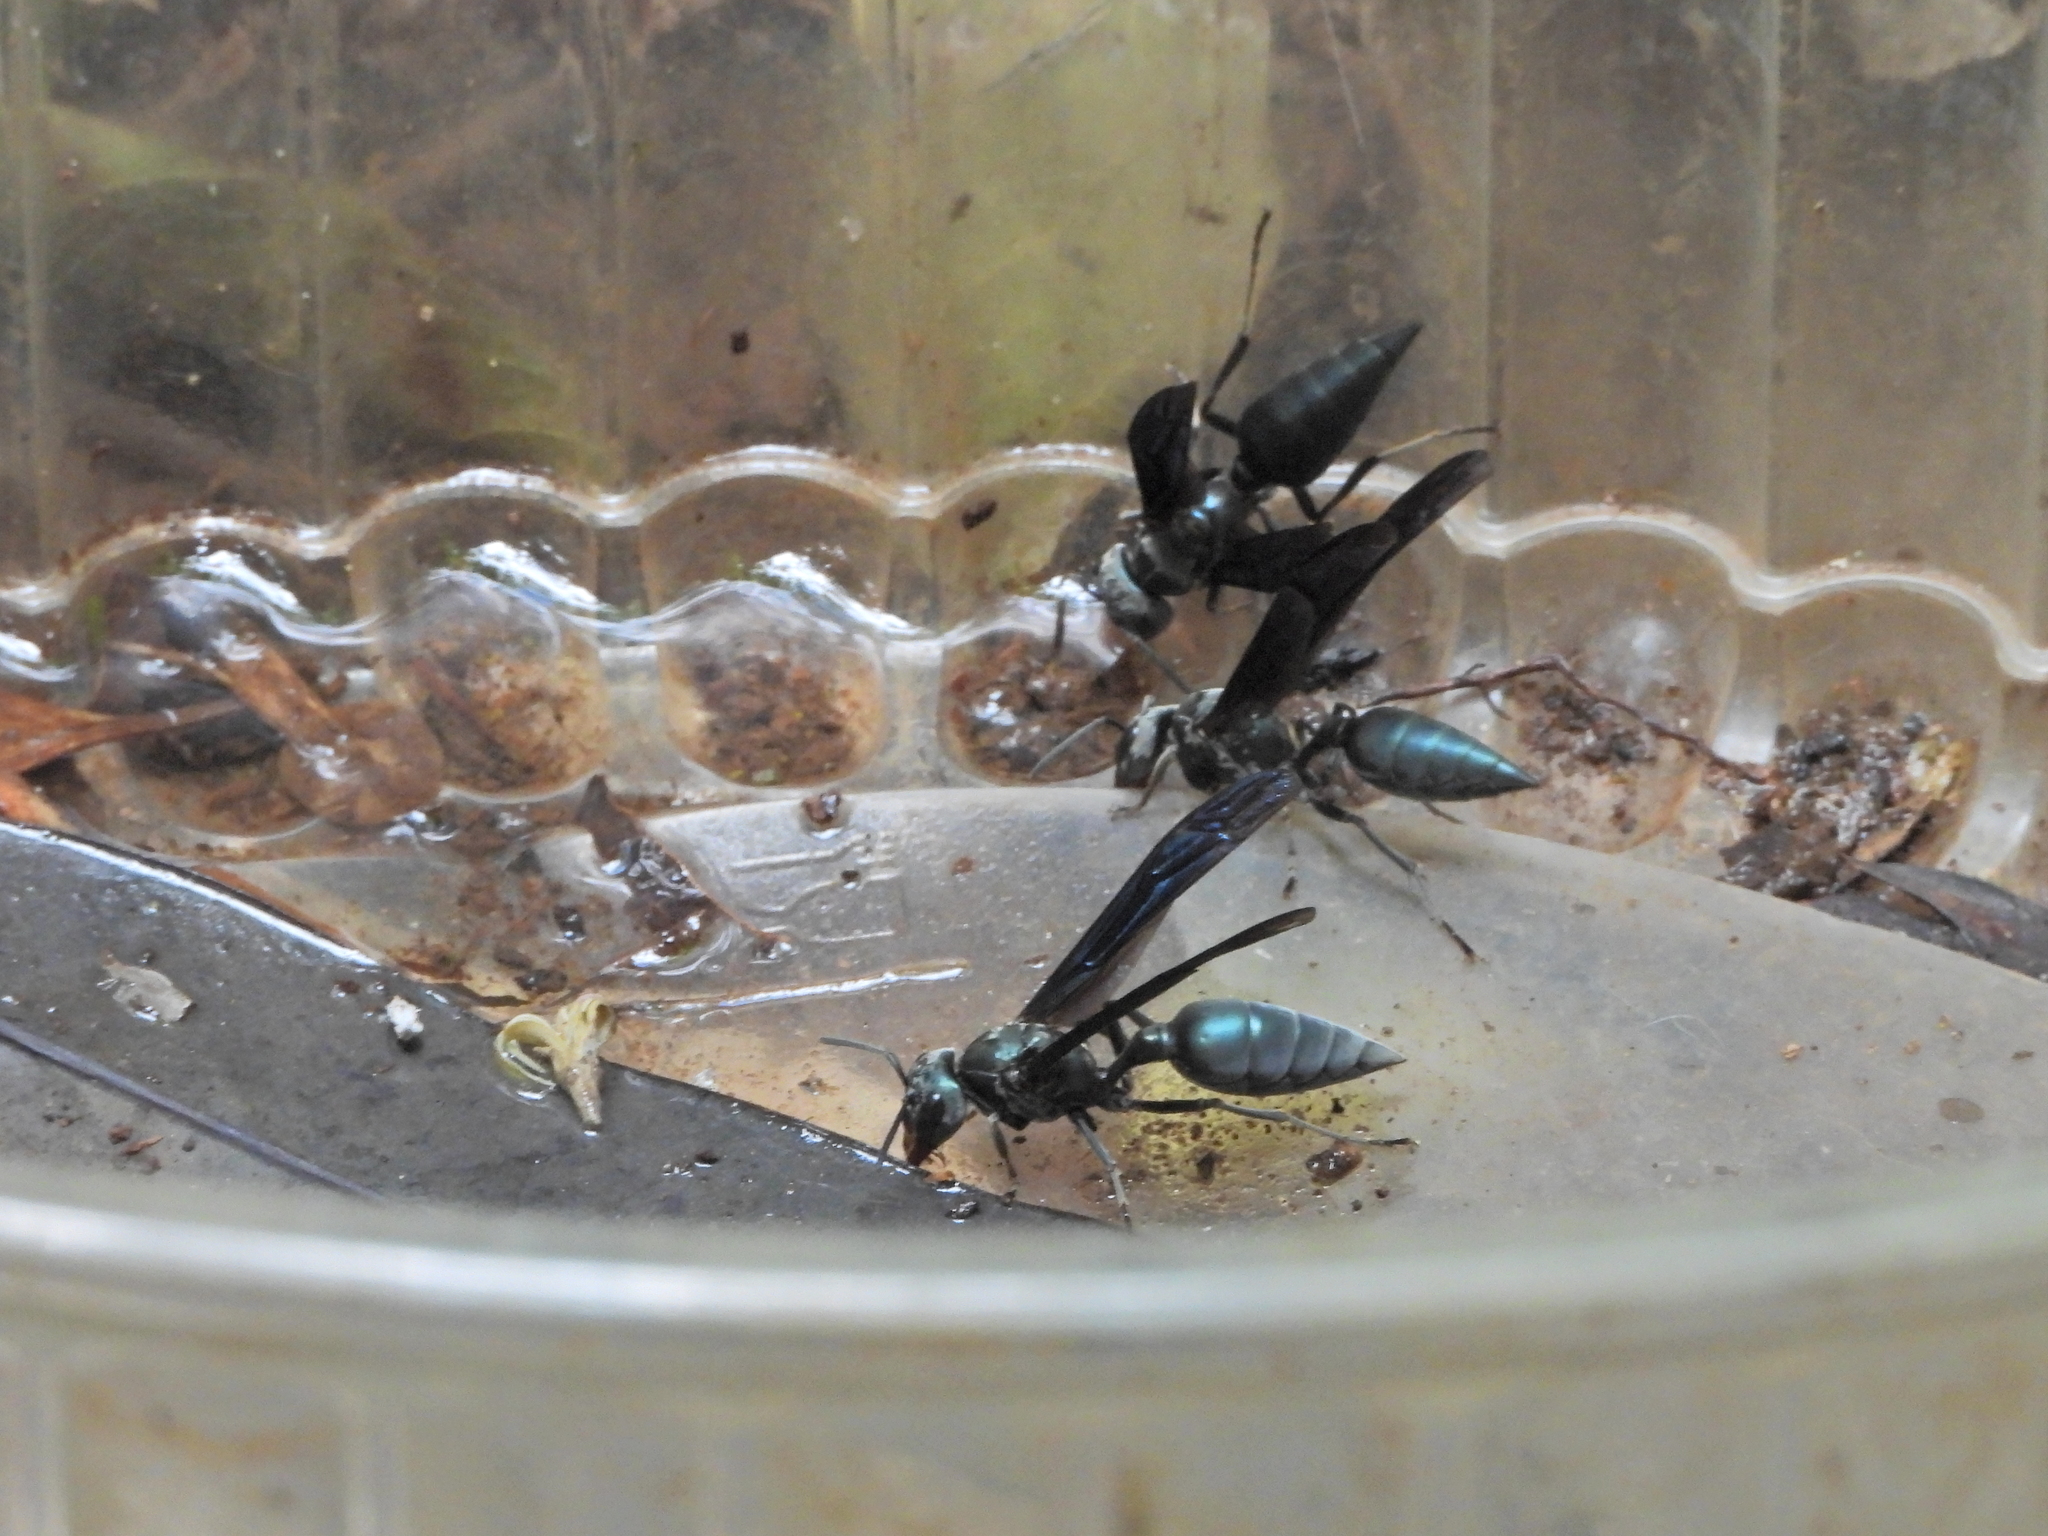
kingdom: Animalia
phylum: Arthropoda
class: Insecta
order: Hymenoptera
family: Vespidae
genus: Synoeca
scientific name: Synoeca septentrionalis
